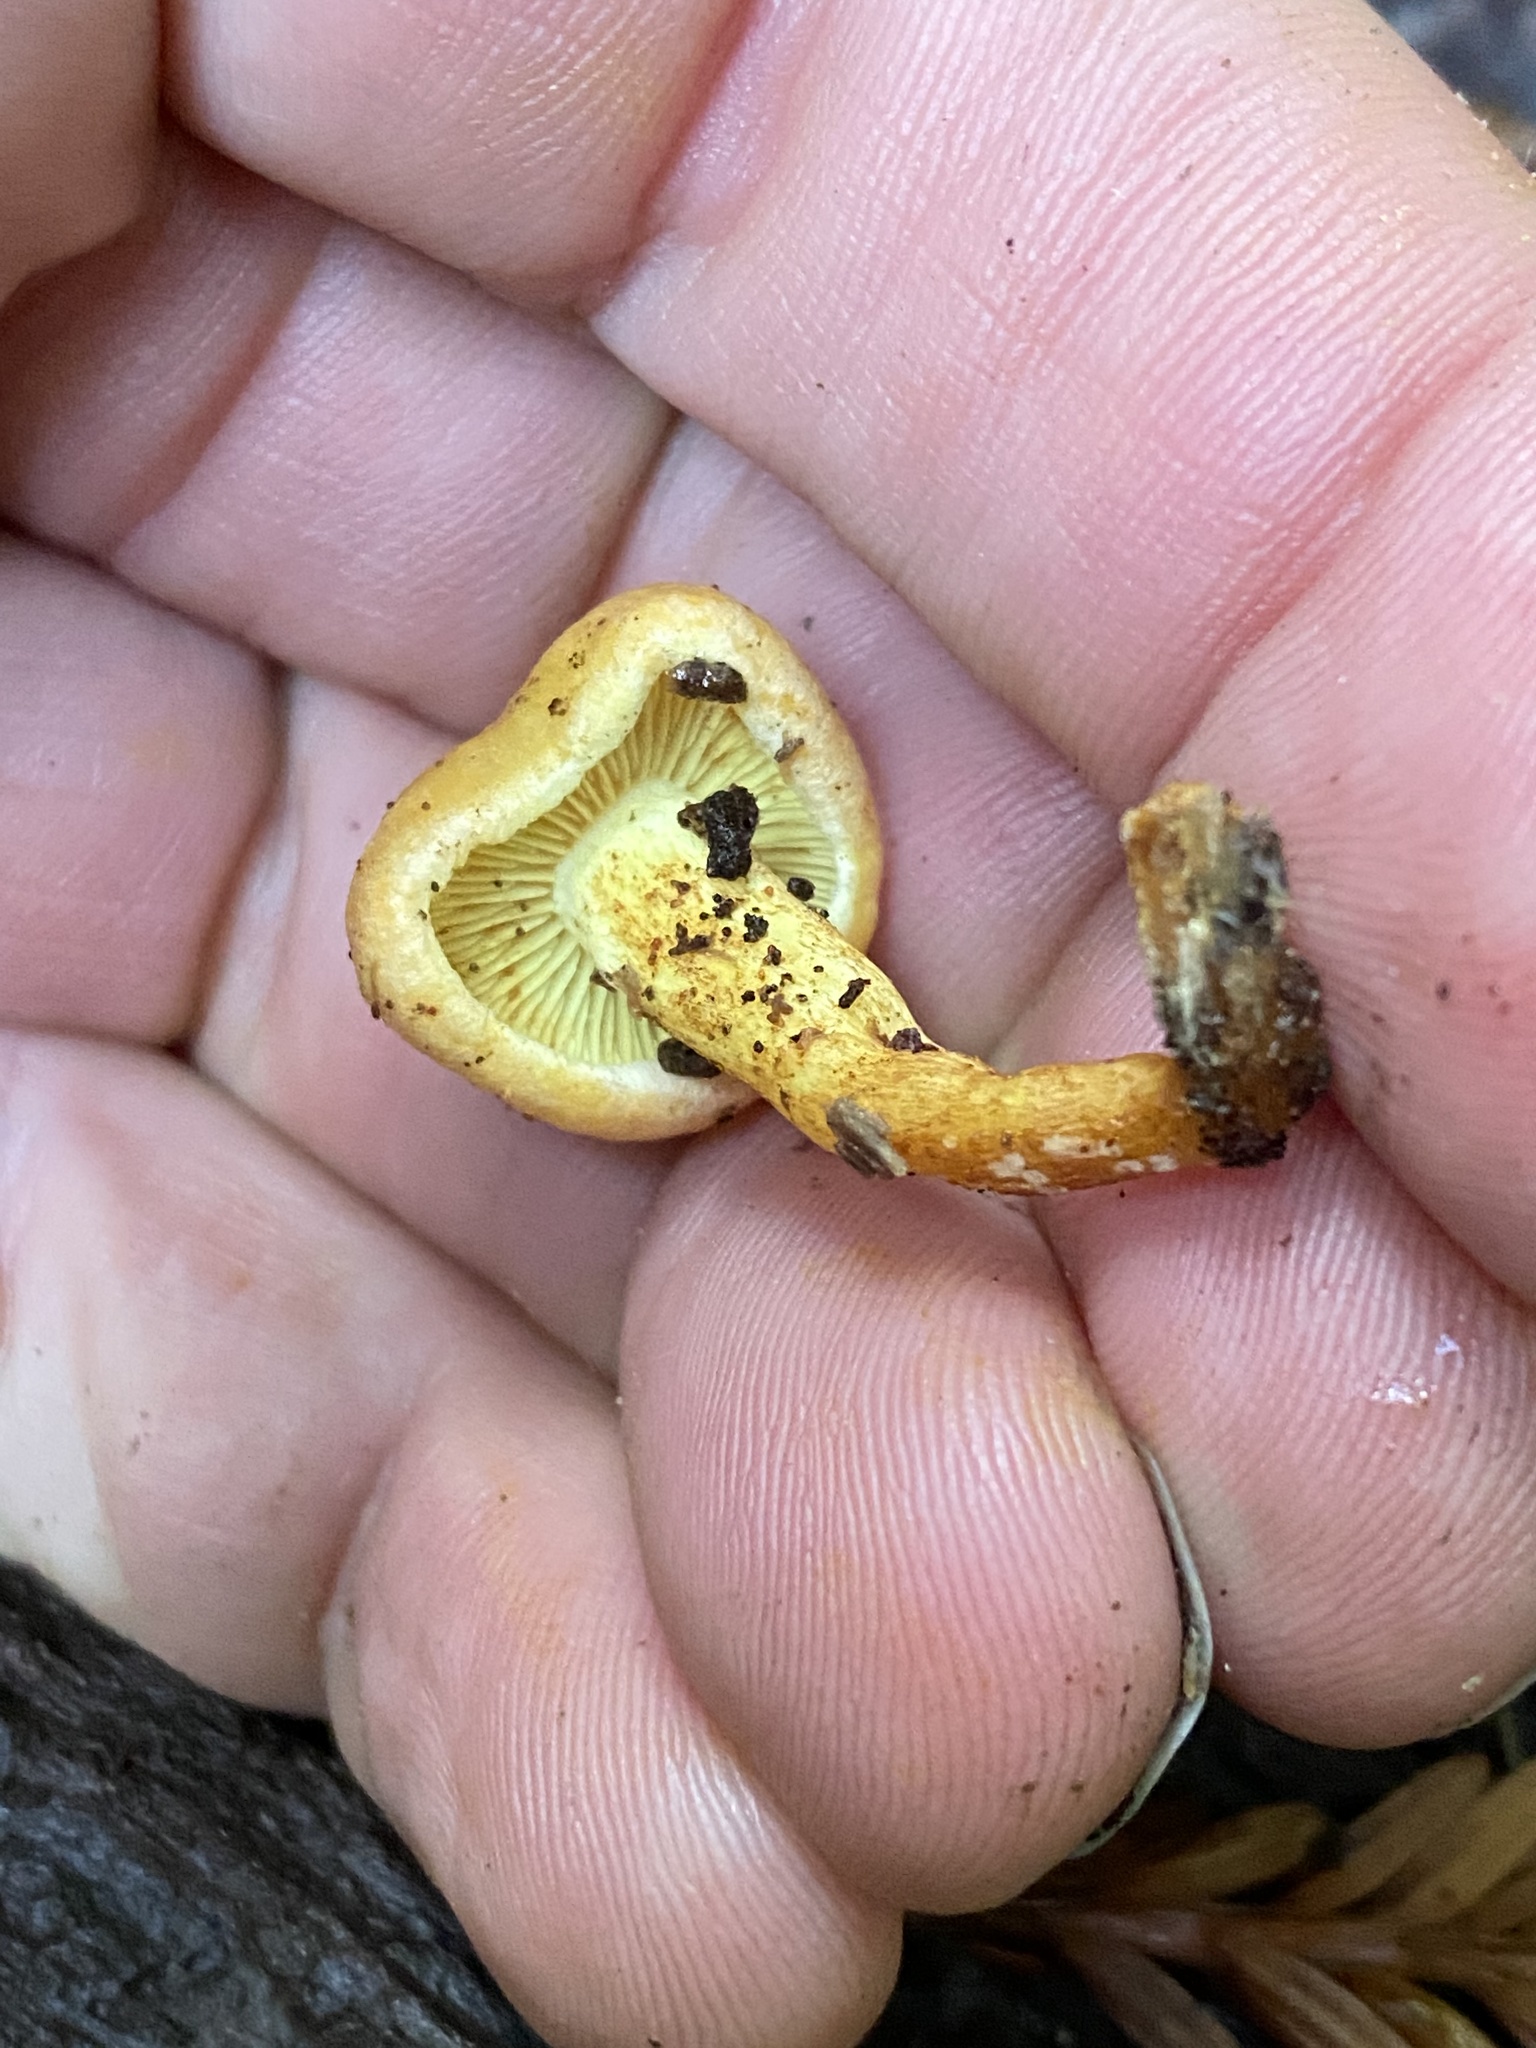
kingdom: Fungi
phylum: Basidiomycota
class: Agaricomycetes
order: Agaricales
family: Strophariaceae
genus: Hypholoma
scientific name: Hypholoma fasciculare
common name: Sulphur tuft
